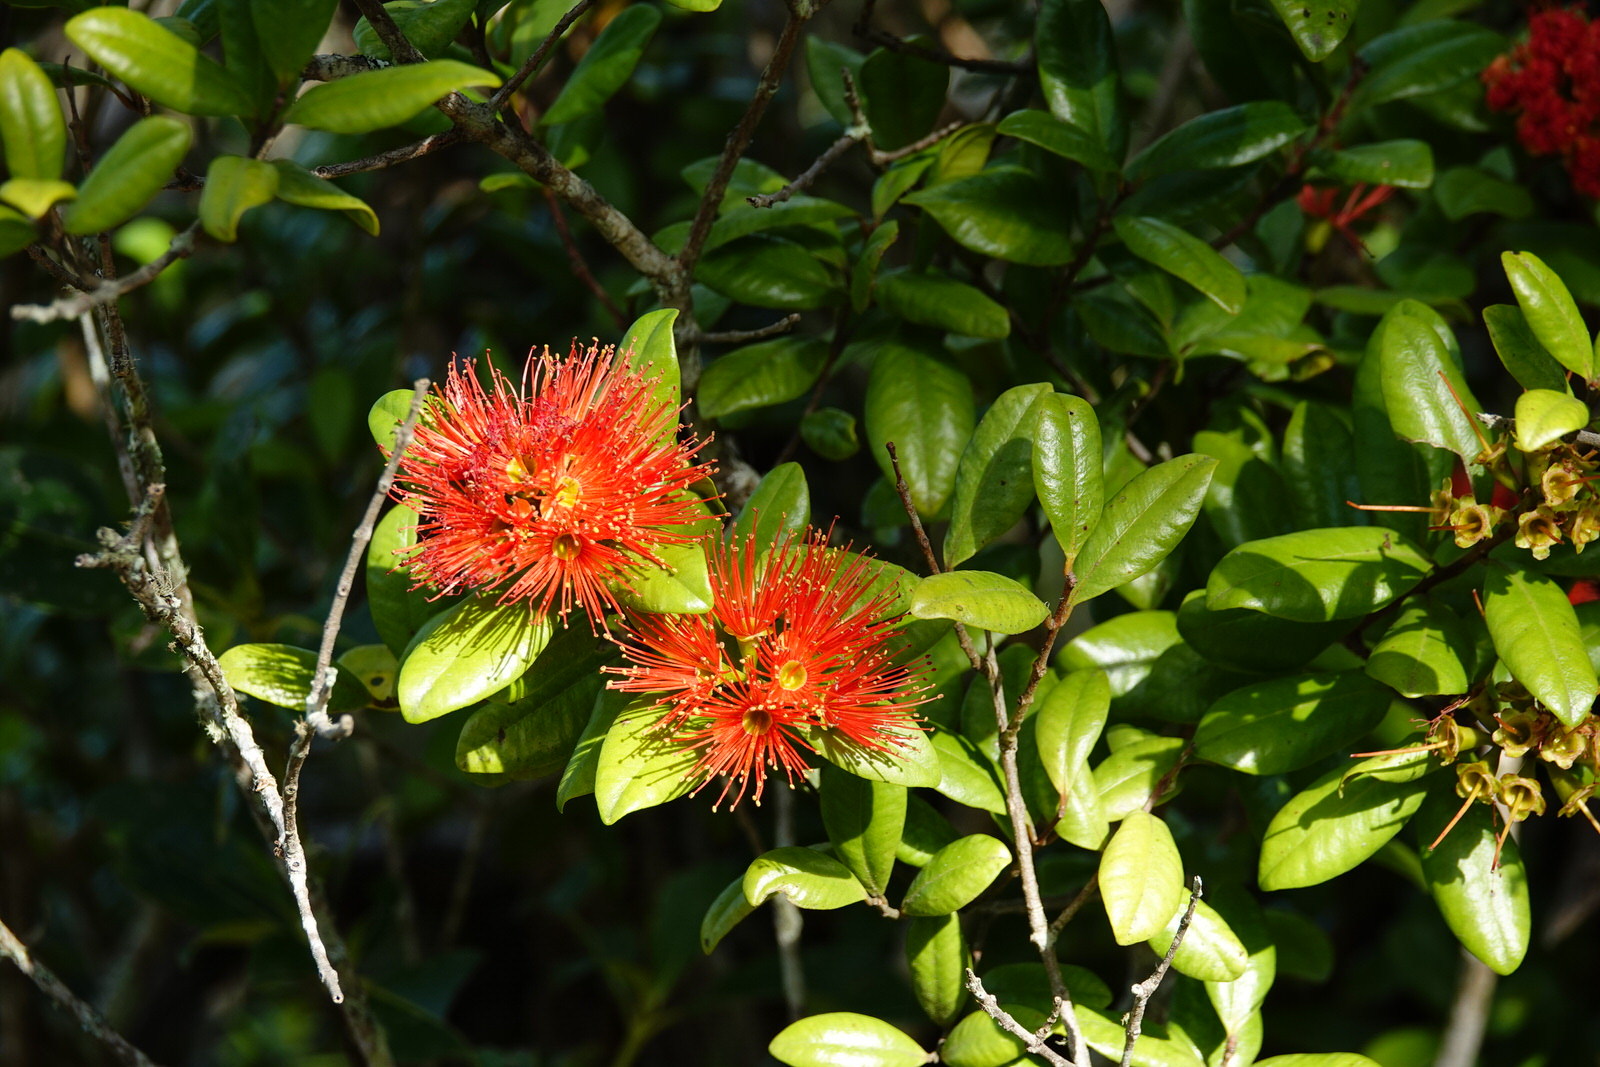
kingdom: Plantae
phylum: Tracheophyta
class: Magnoliopsida
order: Myrtales
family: Myrtaceae
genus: Metrosideros
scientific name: Metrosideros fulgens
